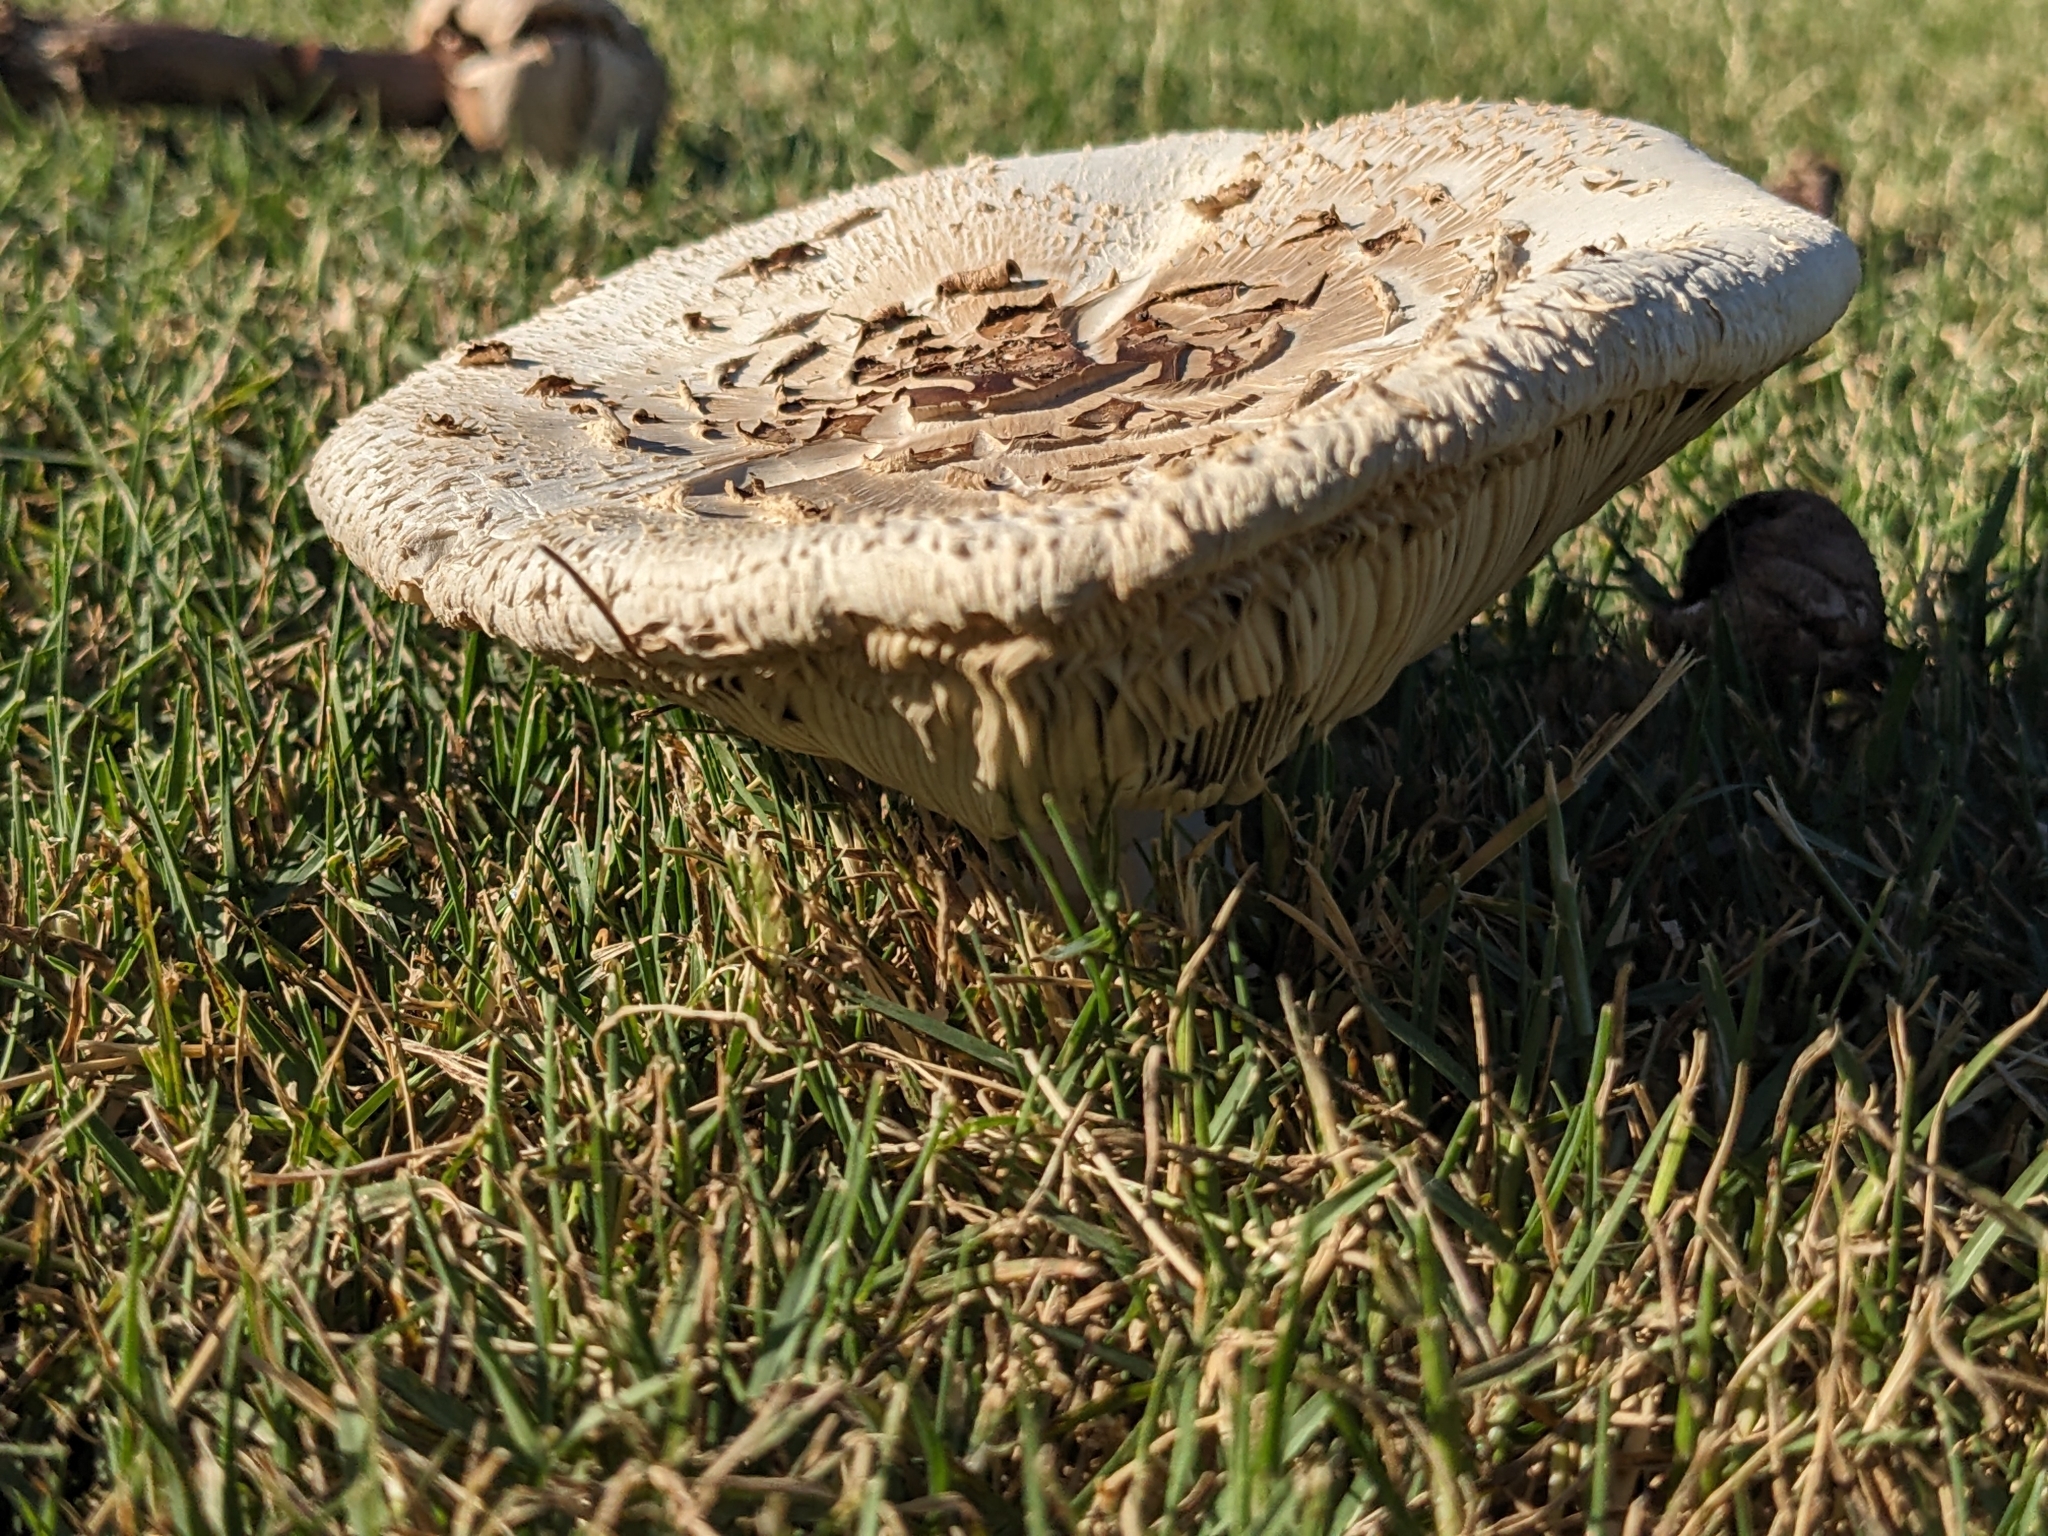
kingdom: Fungi
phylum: Basidiomycota
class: Agaricomycetes
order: Agaricales
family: Agaricaceae
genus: Chlorophyllum
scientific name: Chlorophyllum molybdites
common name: False parasol
